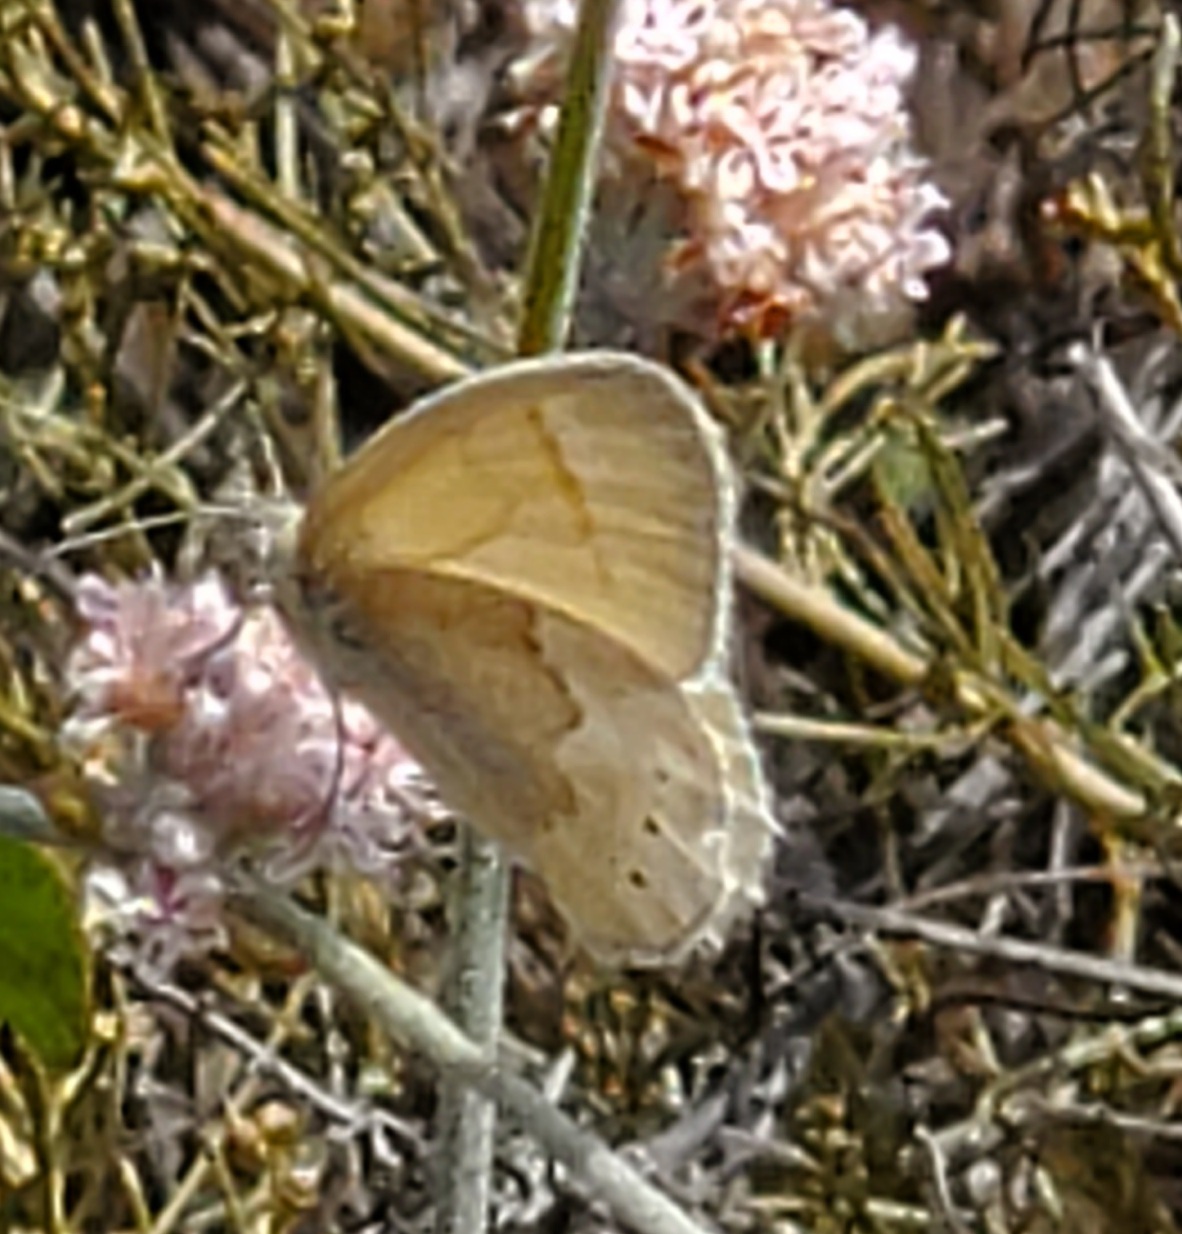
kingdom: Animalia
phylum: Arthropoda
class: Insecta
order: Lepidoptera
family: Nymphalidae
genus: Coenonympha
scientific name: Coenonympha california
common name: Common ringlet
